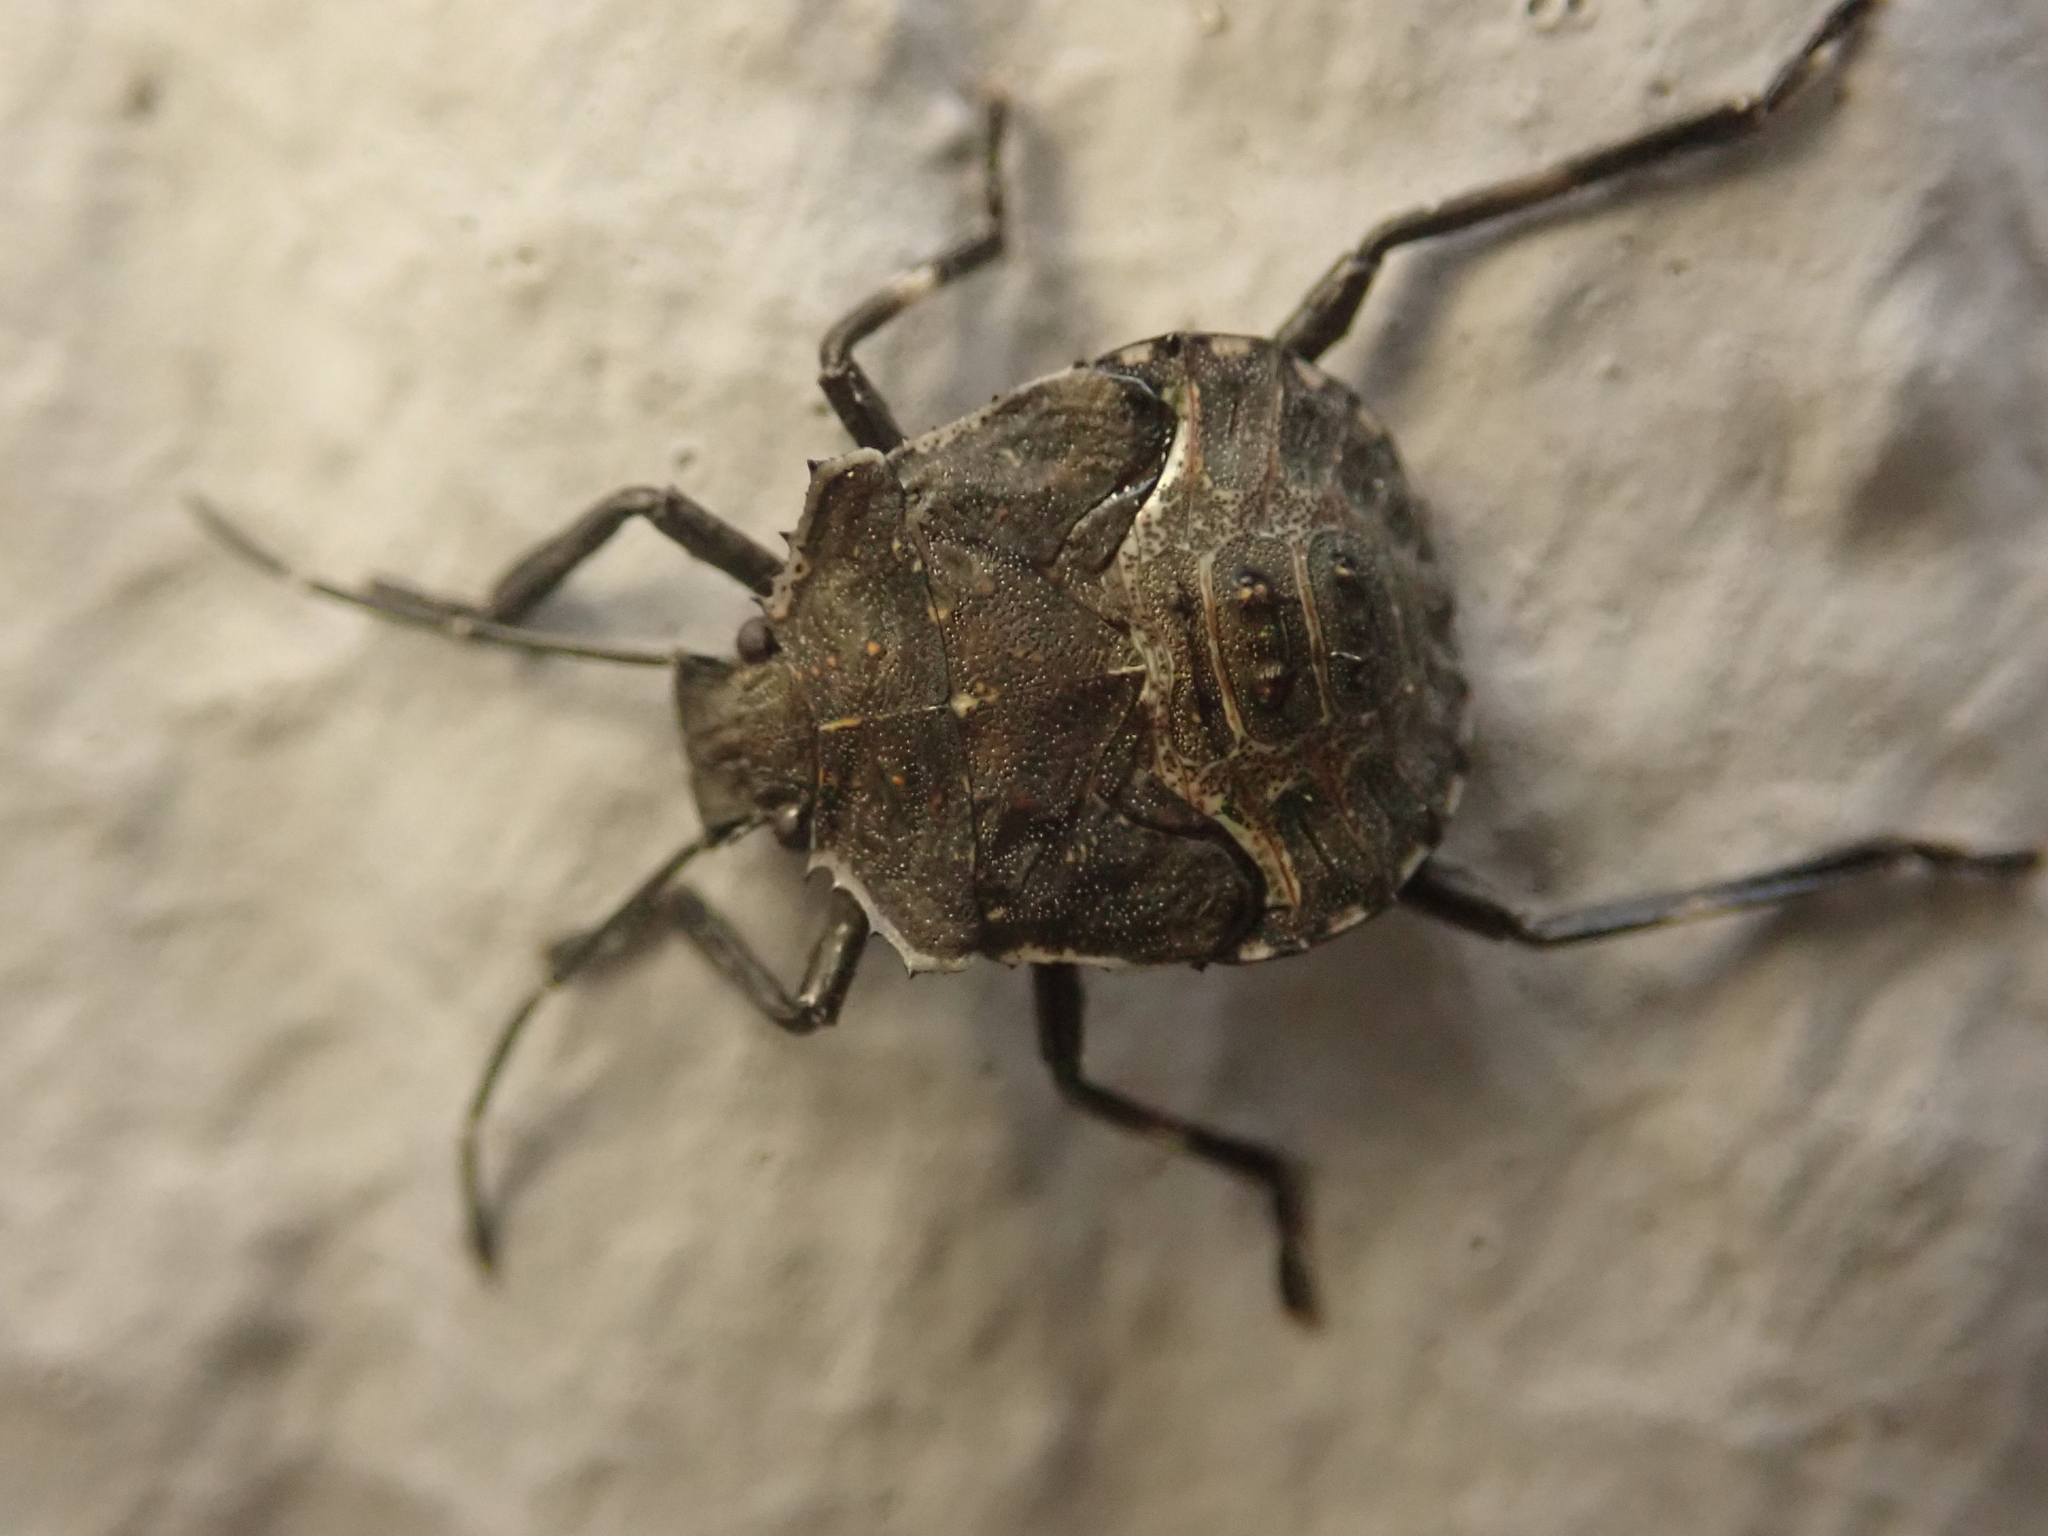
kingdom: Animalia
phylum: Arthropoda
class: Insecta
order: Hemiptera
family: Pentatomidae
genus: Halyomorpha
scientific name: Halyomorpha halys
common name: Brown marmorated stink bug
